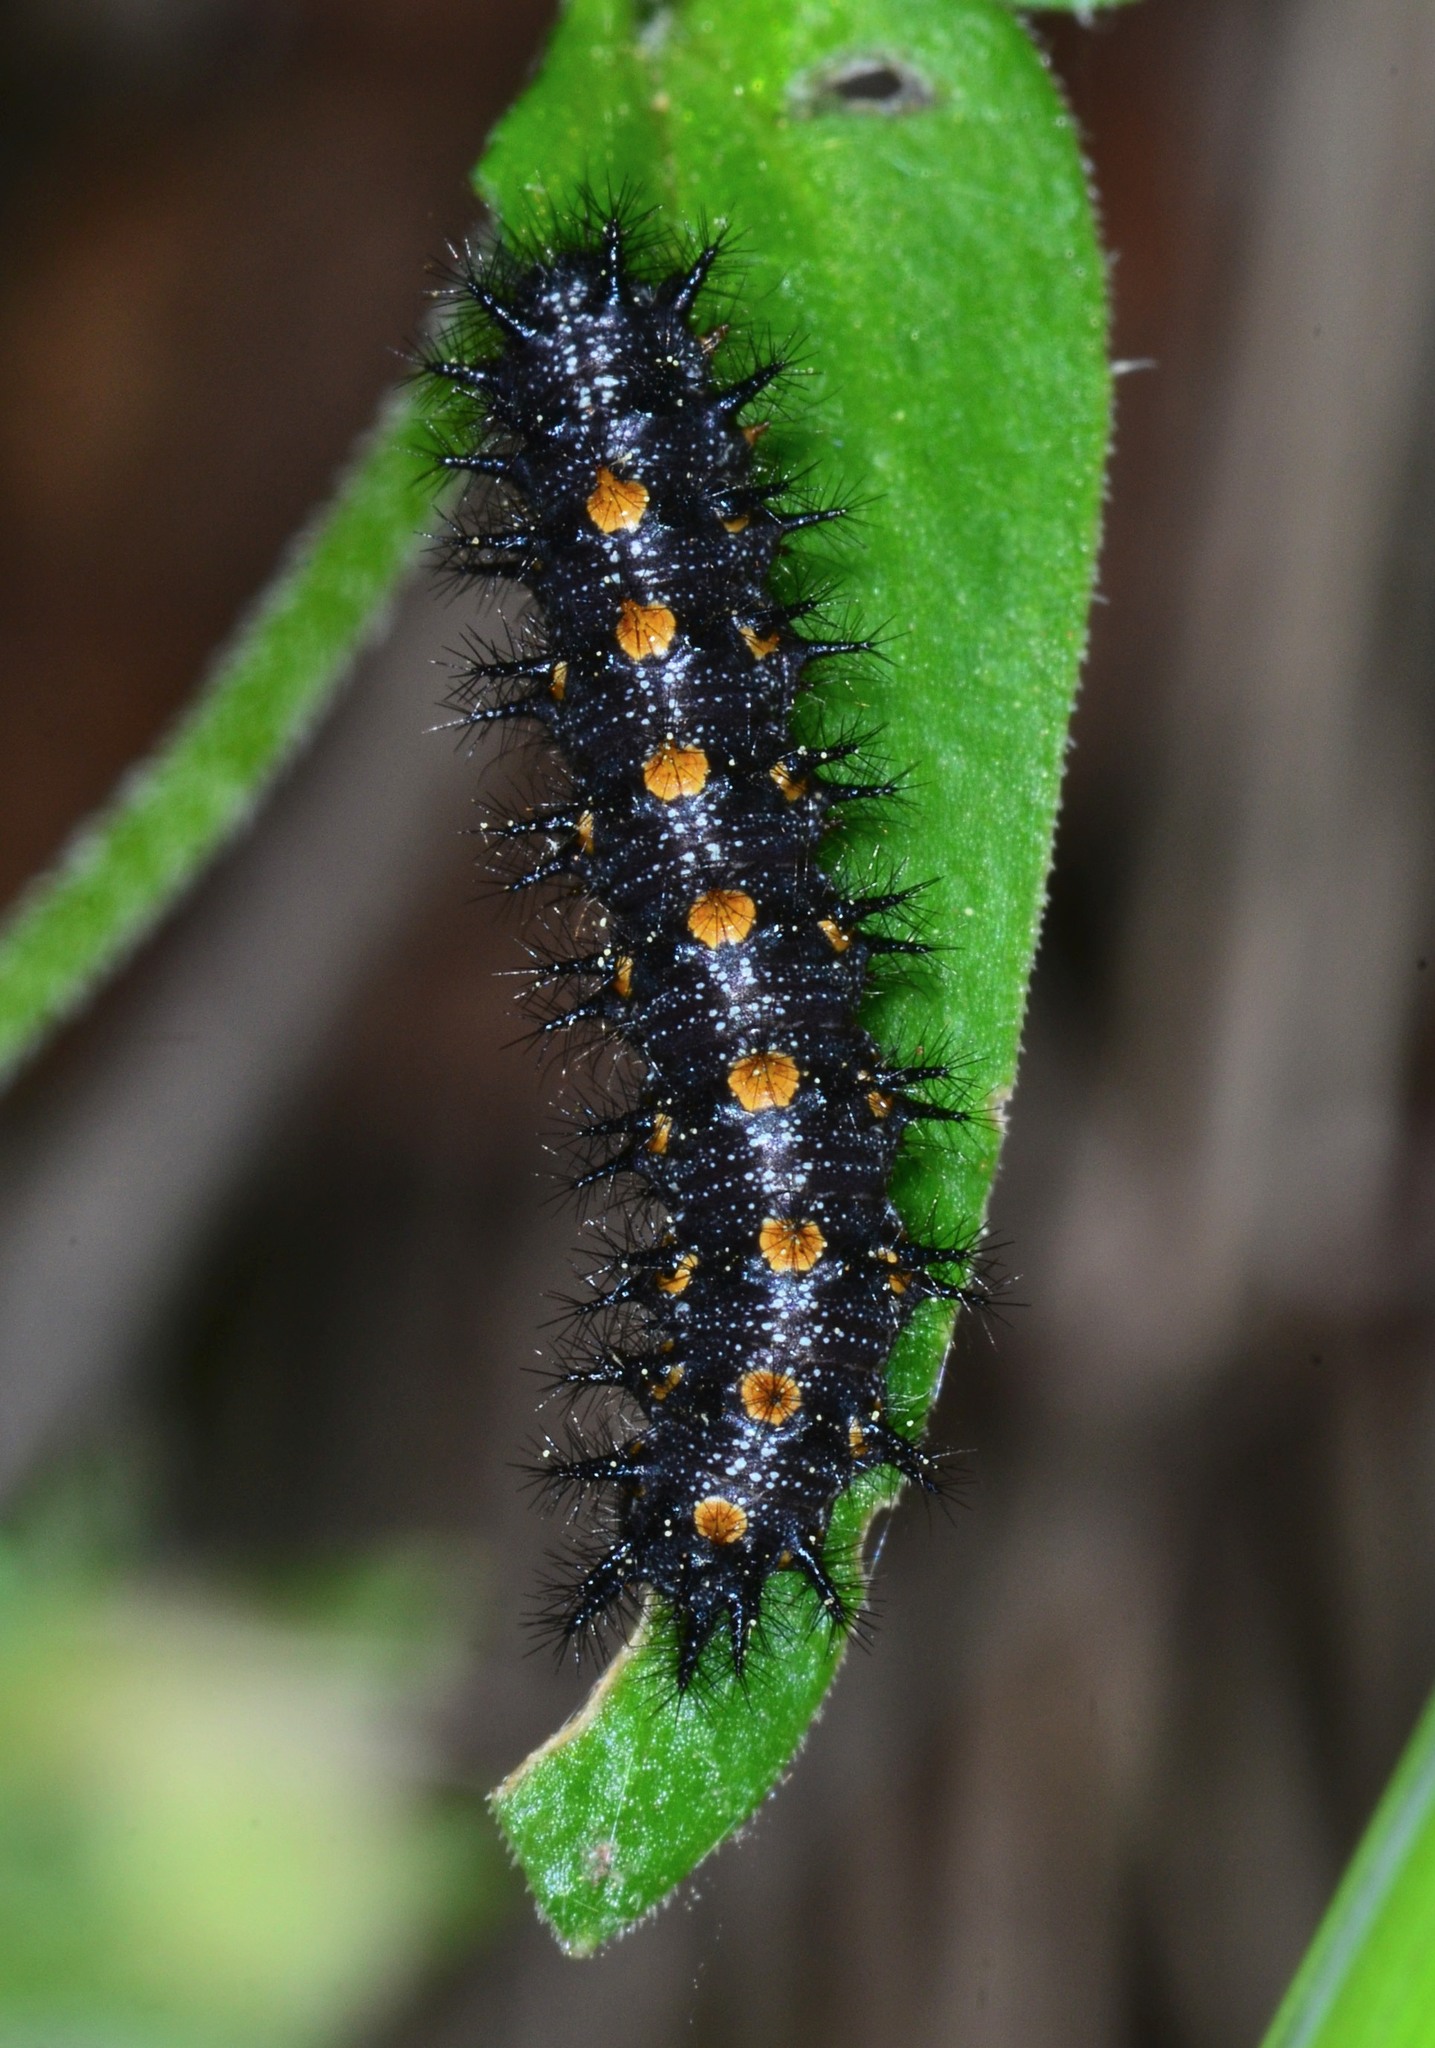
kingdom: Animalia
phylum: Arthropoda
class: Insecta
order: Lepidoptera
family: Nymphalidae
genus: Occidryas
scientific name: Occidryas chalcedona
